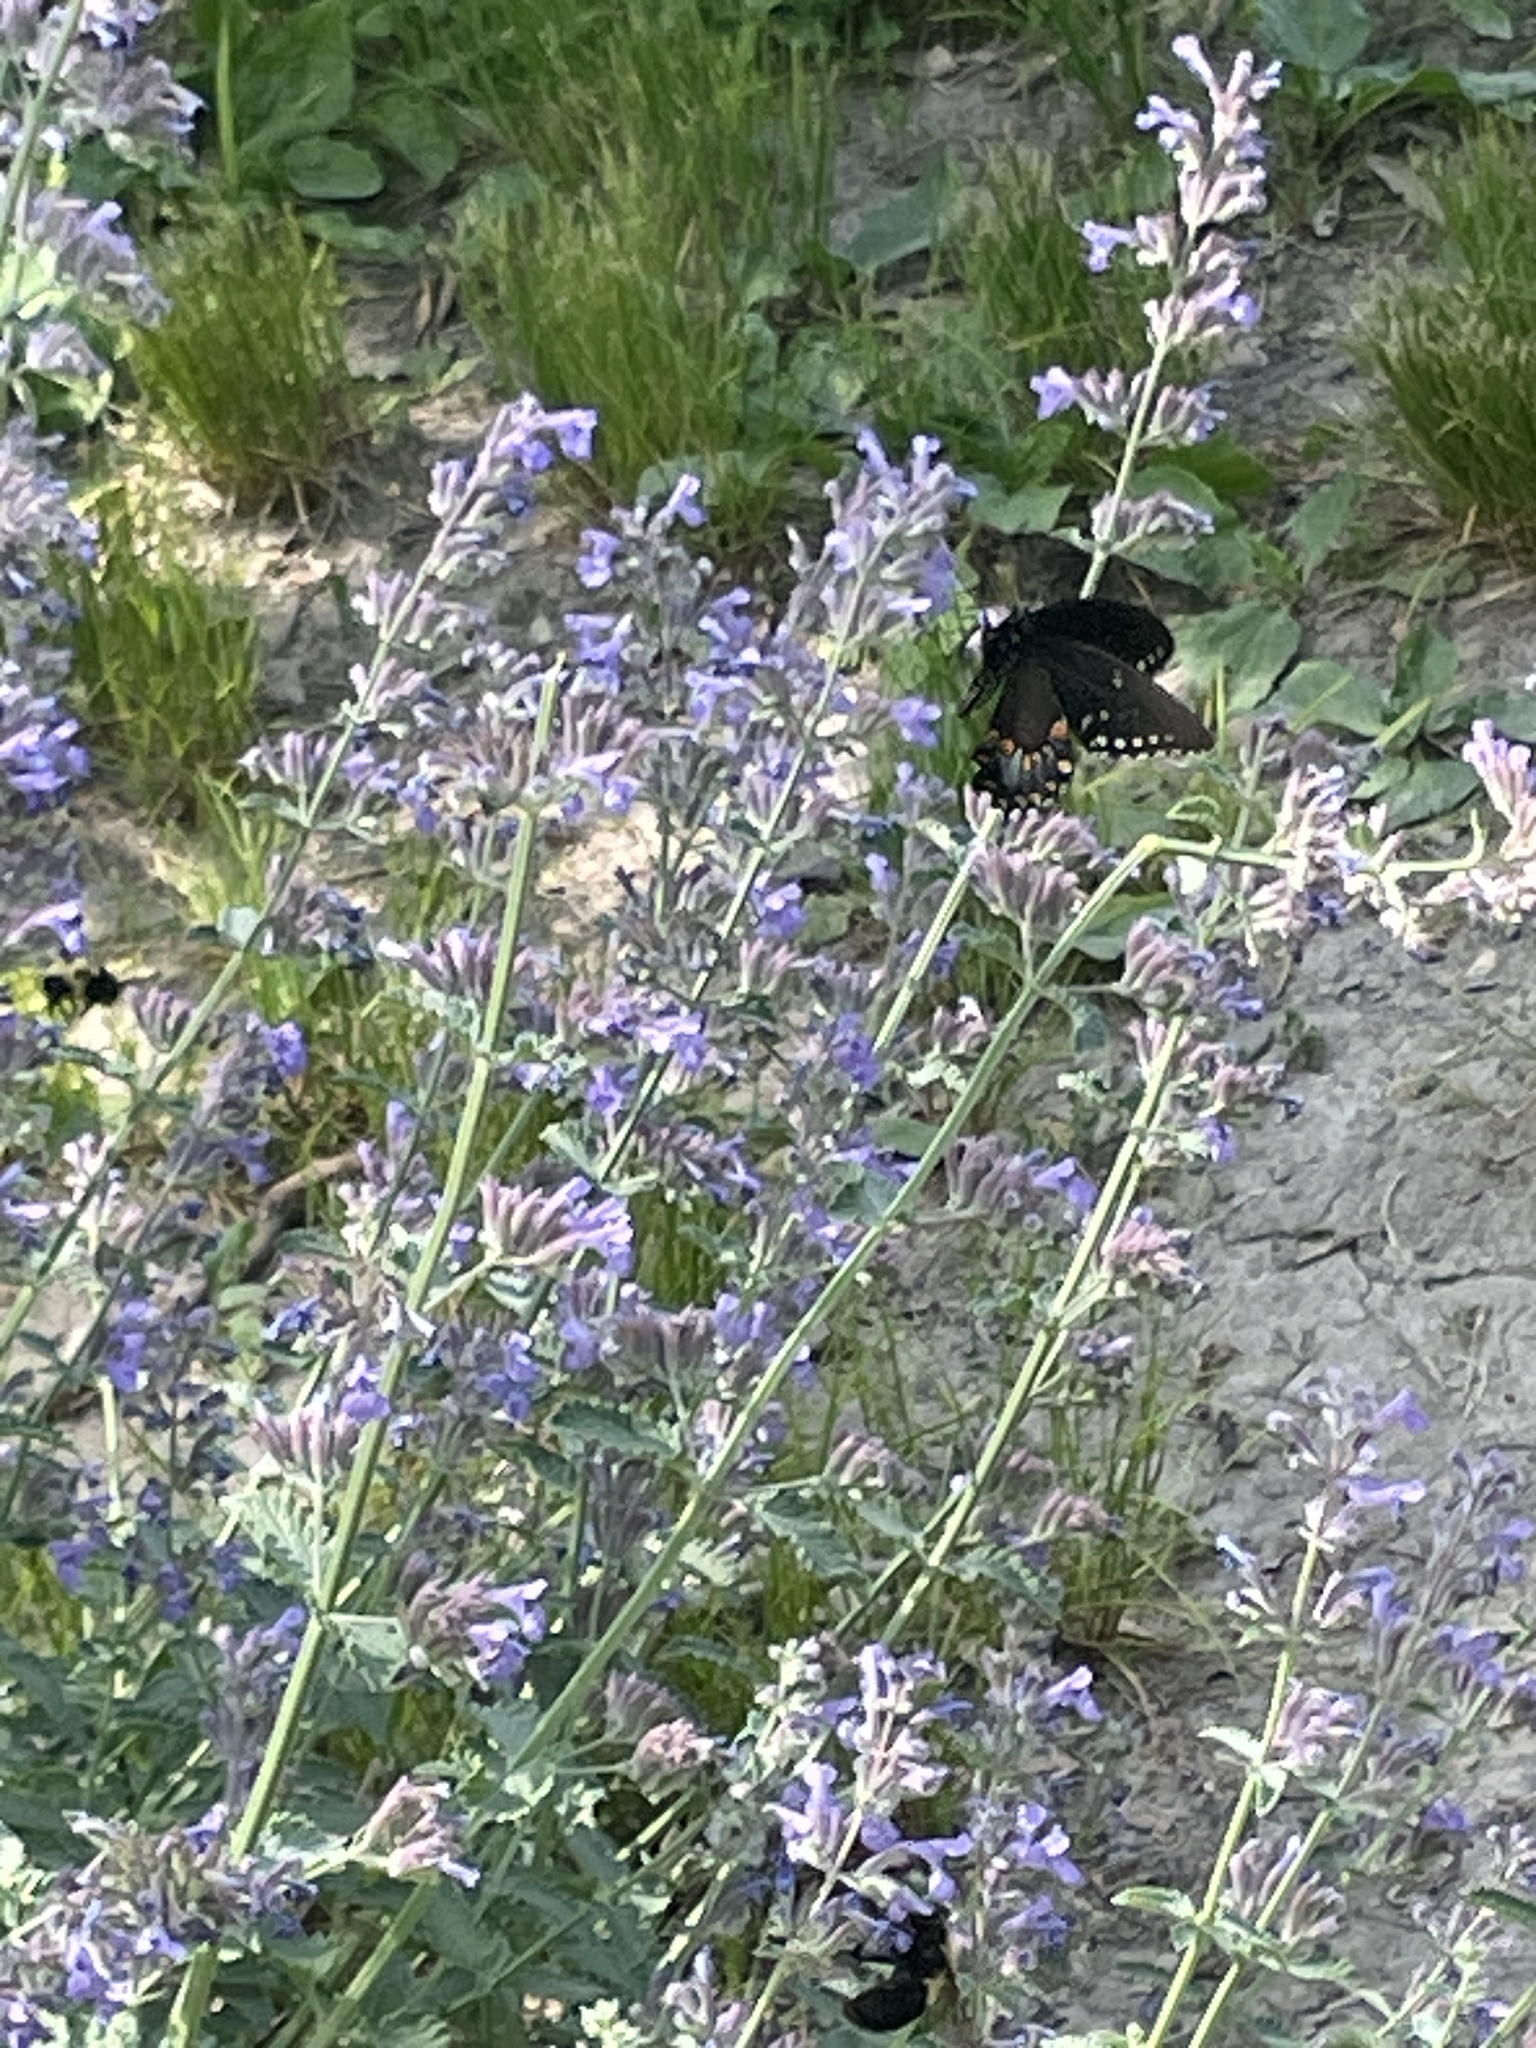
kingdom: Animalia
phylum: Arthropoda
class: Insecta
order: Lepidoptera
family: Papilionidae
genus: Papilio
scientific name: Papilio troilus
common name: Spicebush swallowtail
